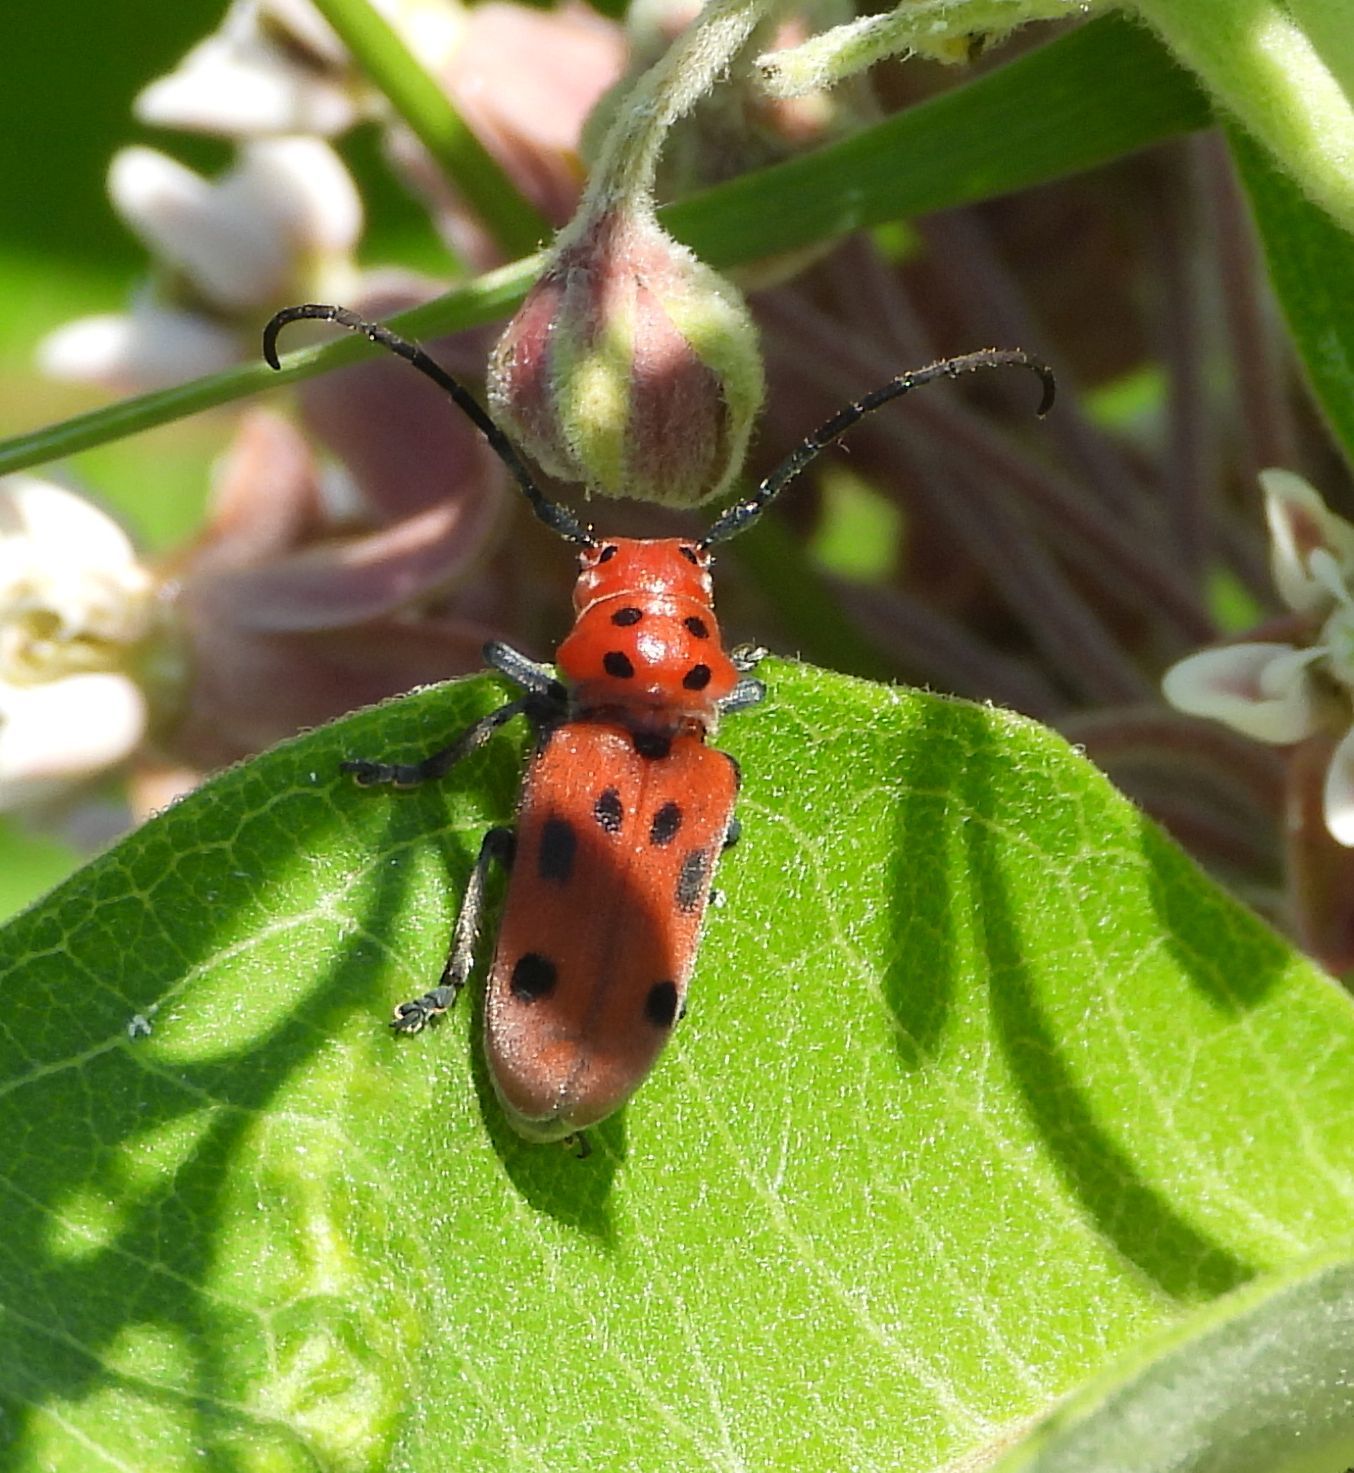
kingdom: Animalia
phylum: Arthropoda
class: Insecta
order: Coleoptera
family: Cerambycidae
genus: Tetraopes
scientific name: Tetraopes tetrophthalmus
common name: Red milkweed beetle
